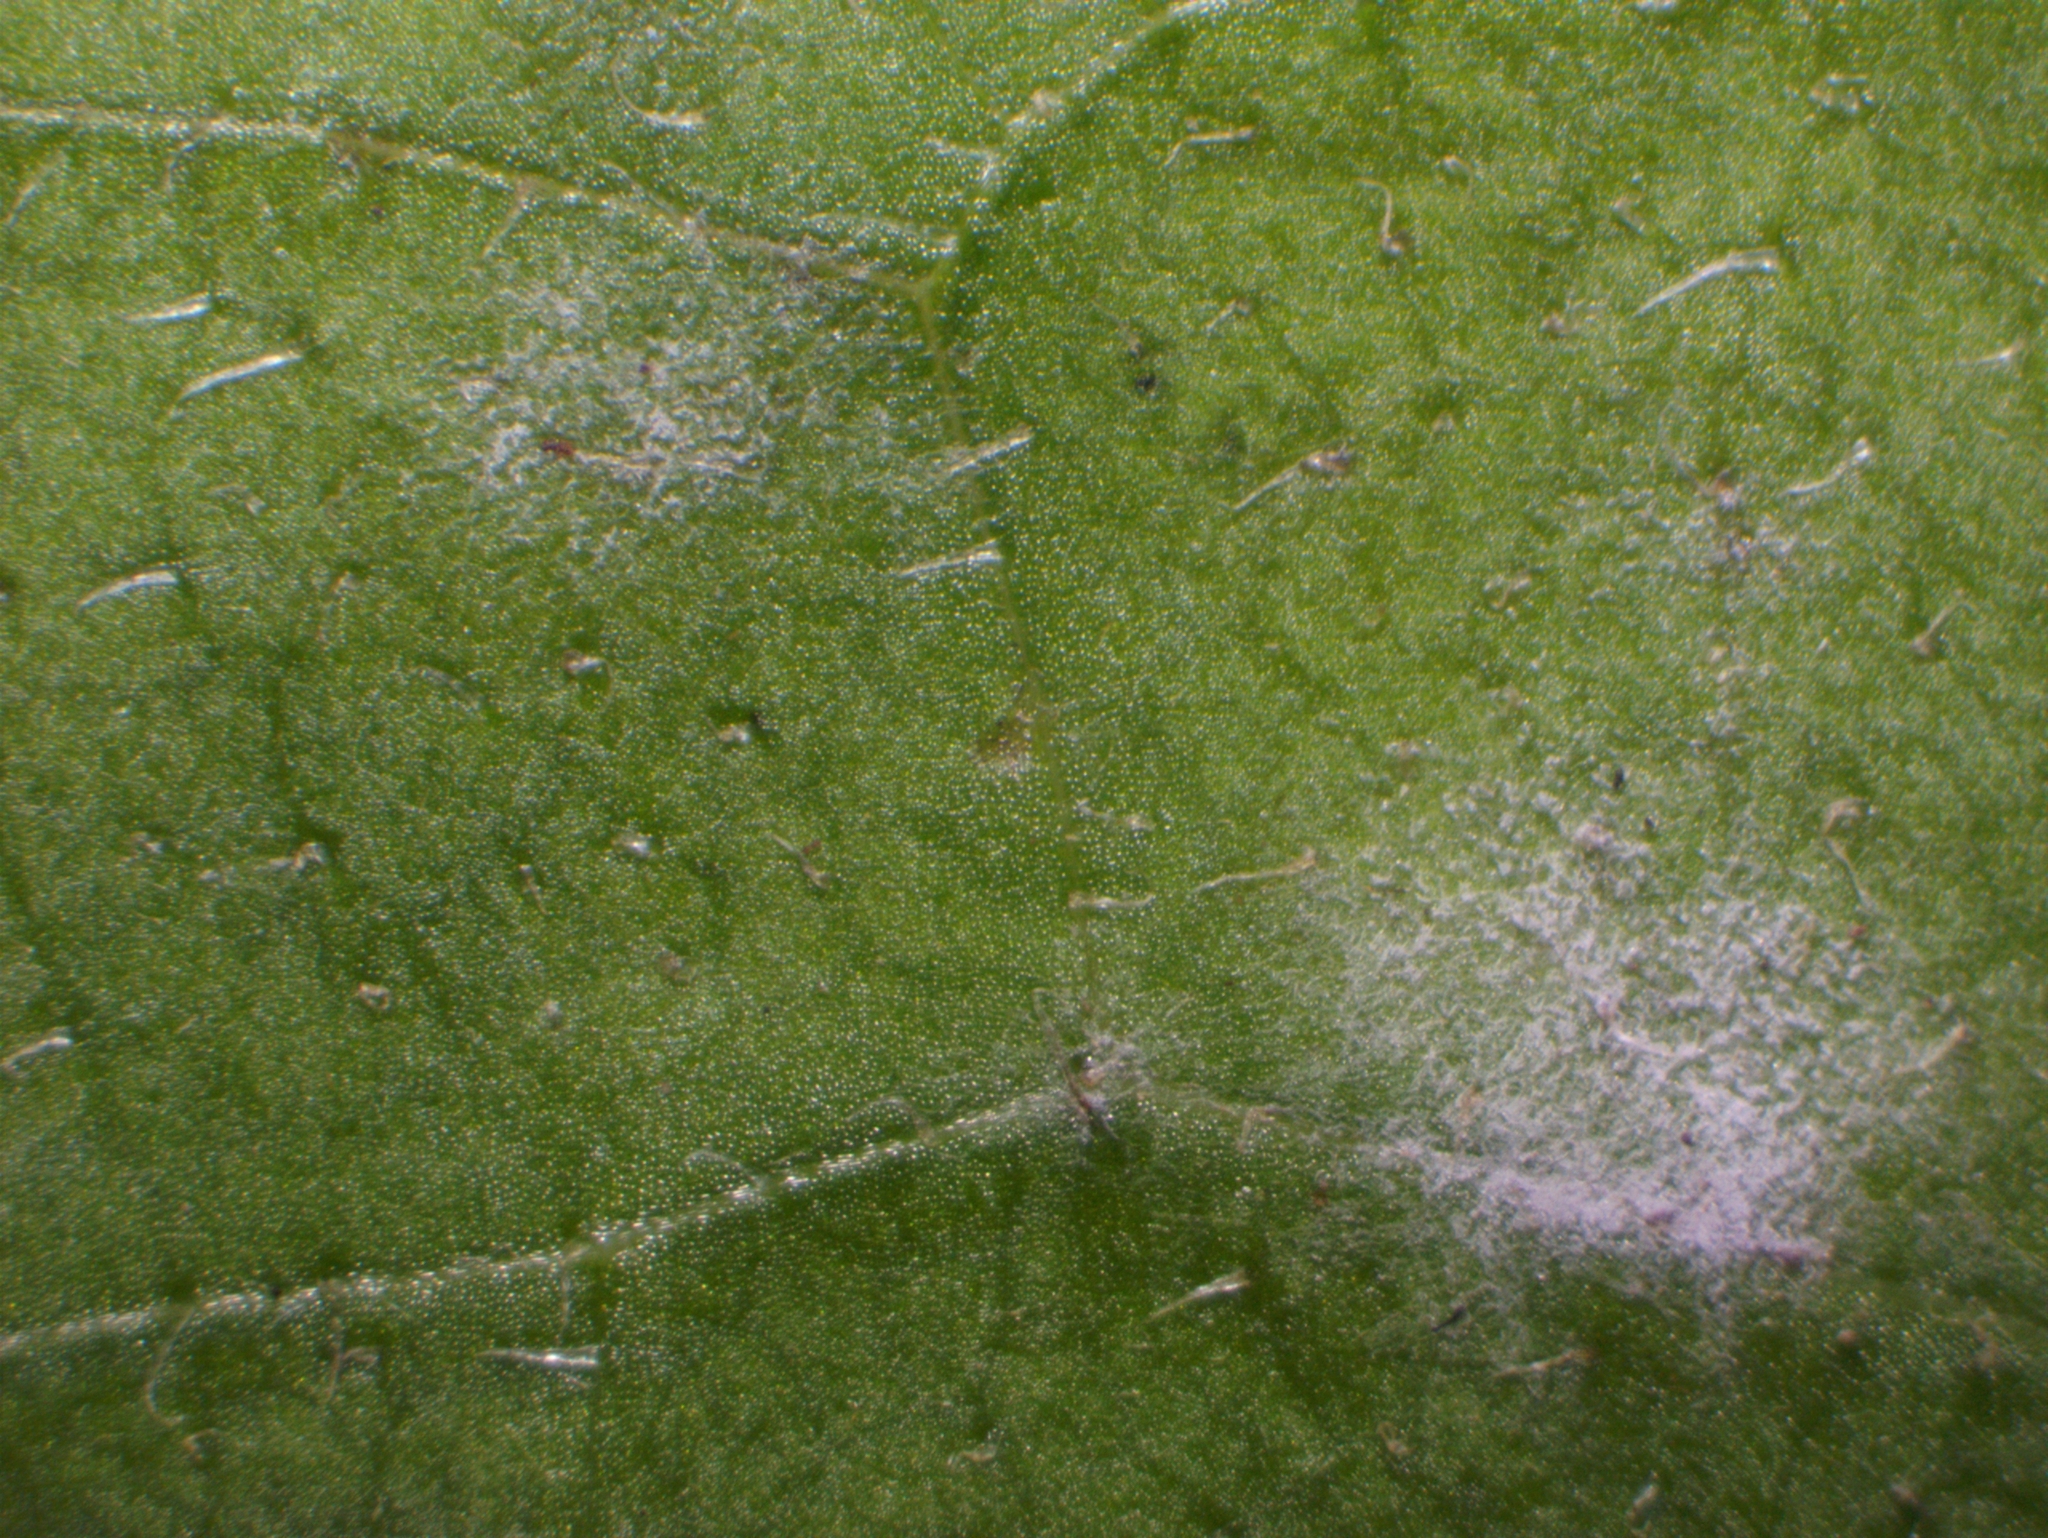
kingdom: Fungi
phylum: Ascomycota
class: Leotiomycetes
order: Helotiales
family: Erysiphaceae
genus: Podosphaera
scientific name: Podosphaera erigerontis-canadensis
